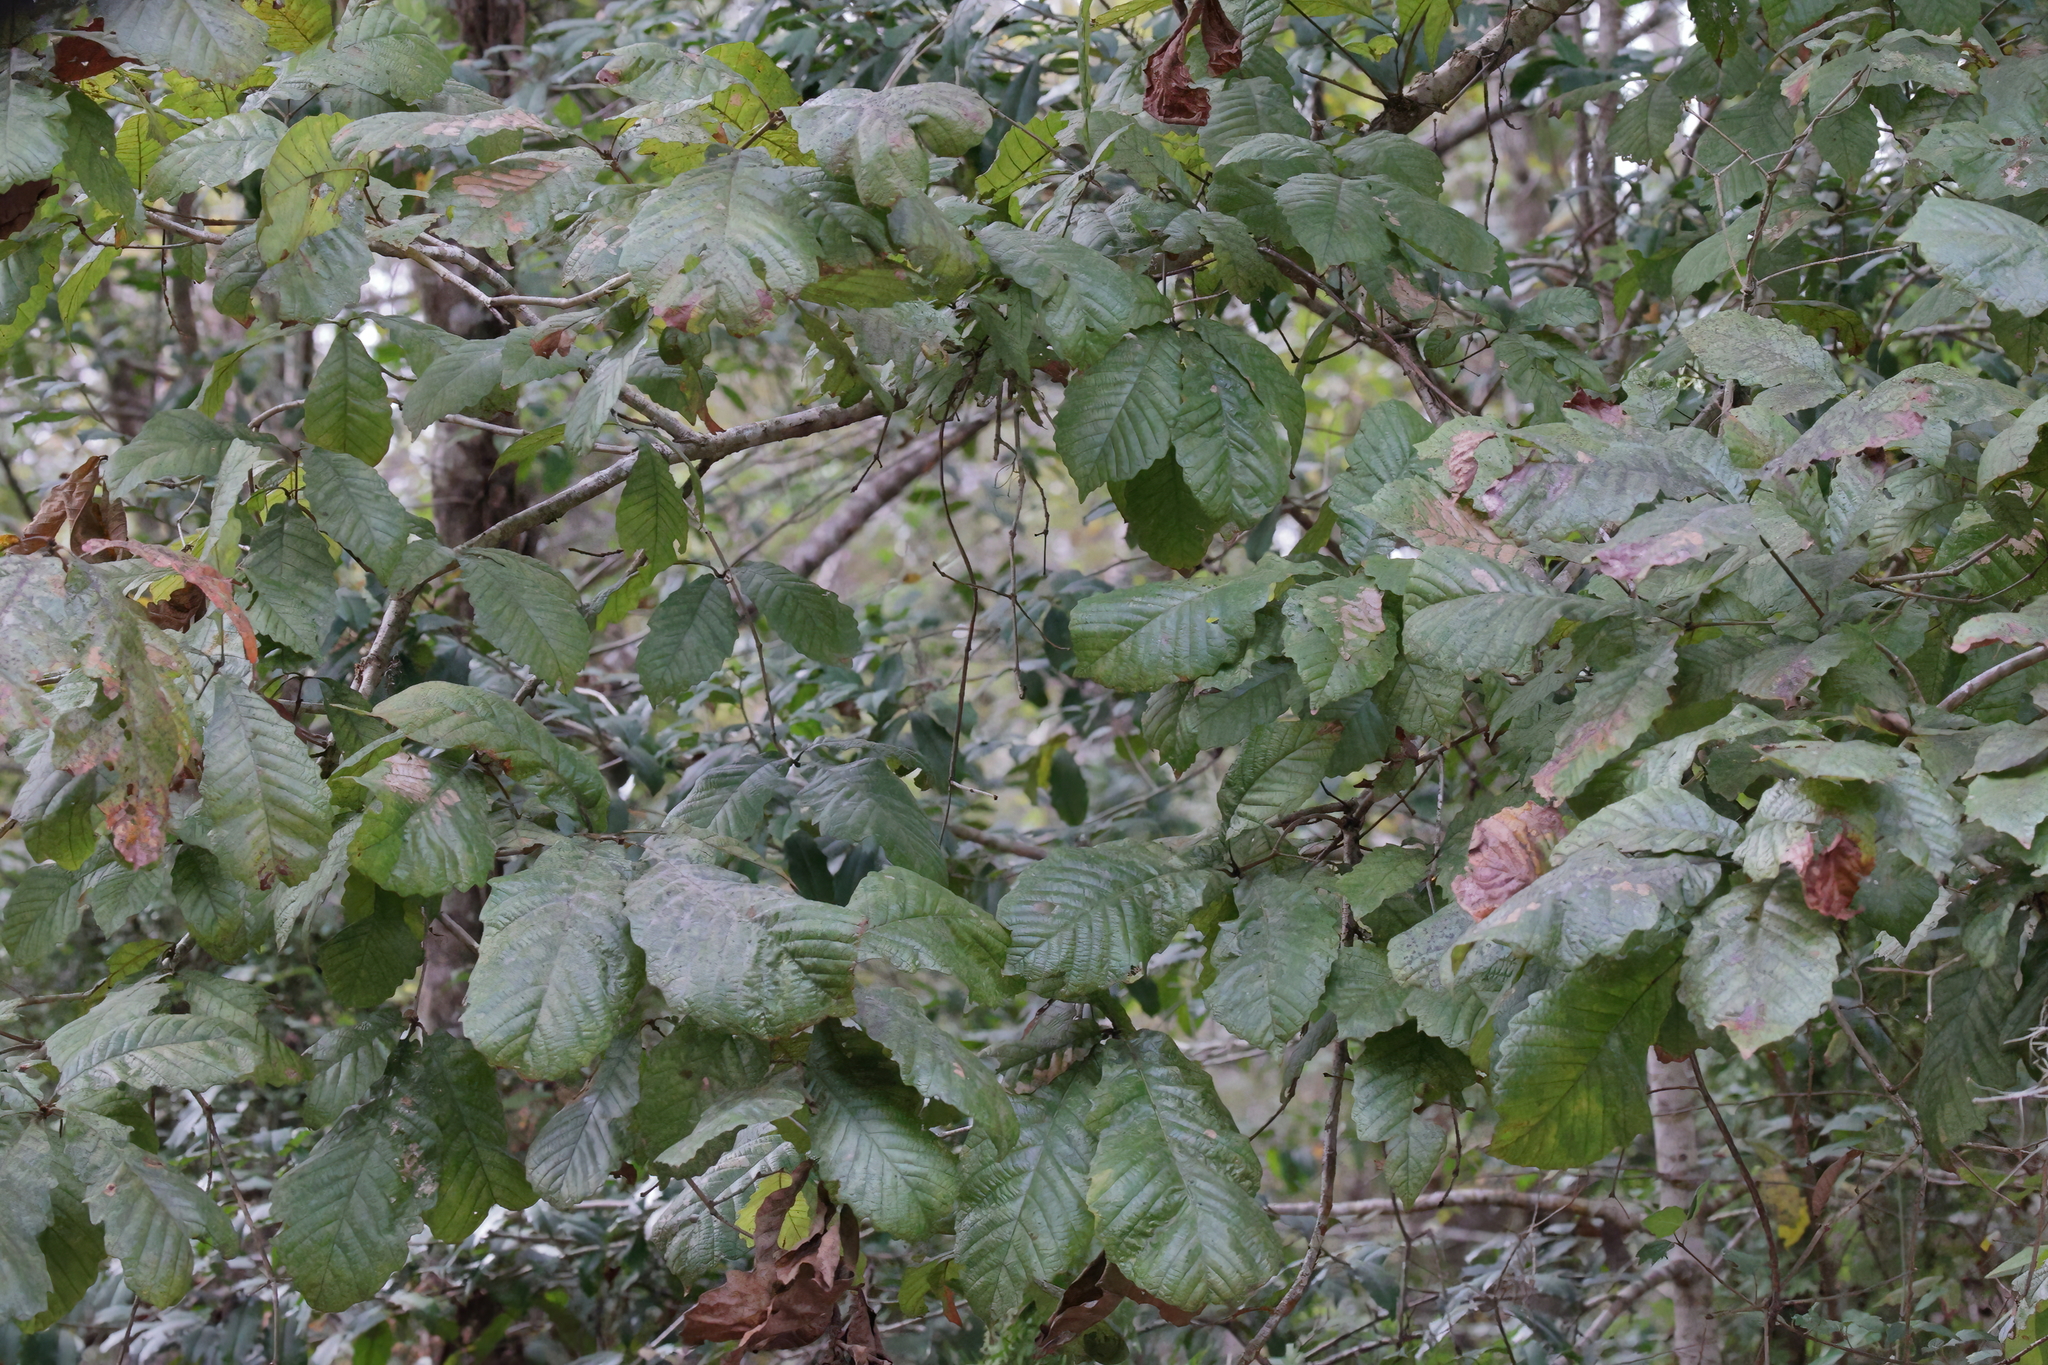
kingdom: Plantae
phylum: Tracheophyta
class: Magnoliopsida
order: Fagales
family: Fagaceae
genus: Quercus
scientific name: Quercus michauxii
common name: Swamp chestnut oak
